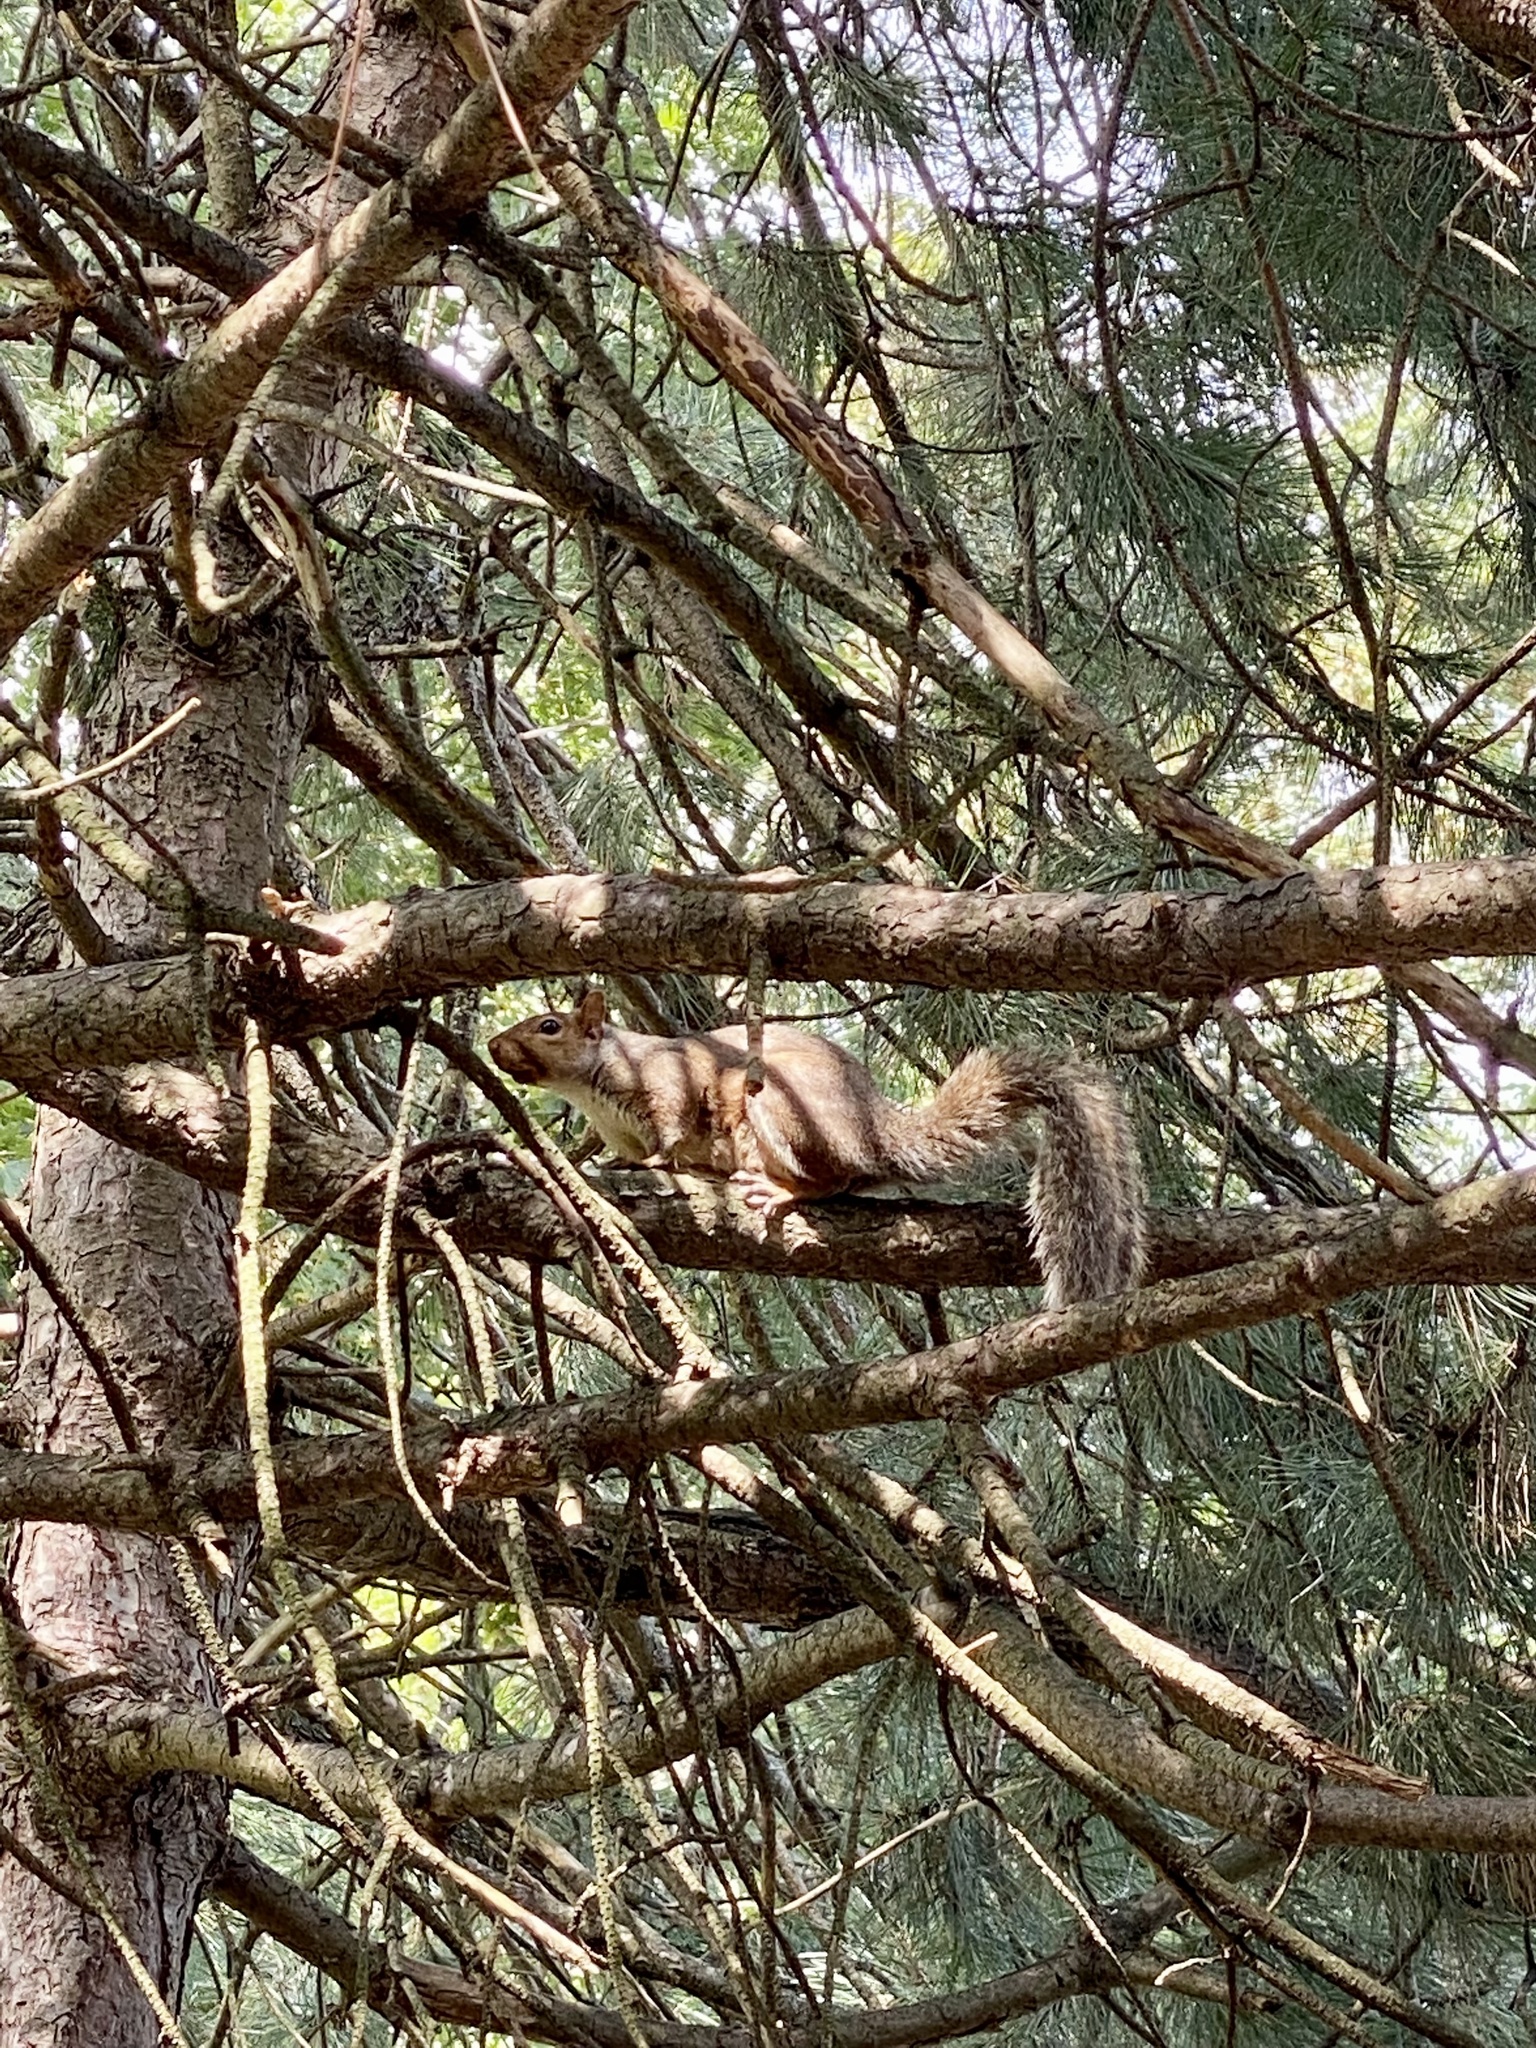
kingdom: Animalia
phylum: Chordata
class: Mammalia
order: Rodentia
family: Sciuridae
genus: Sciurus
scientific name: Sciurus carolinensis
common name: Eastern gray squirrel
